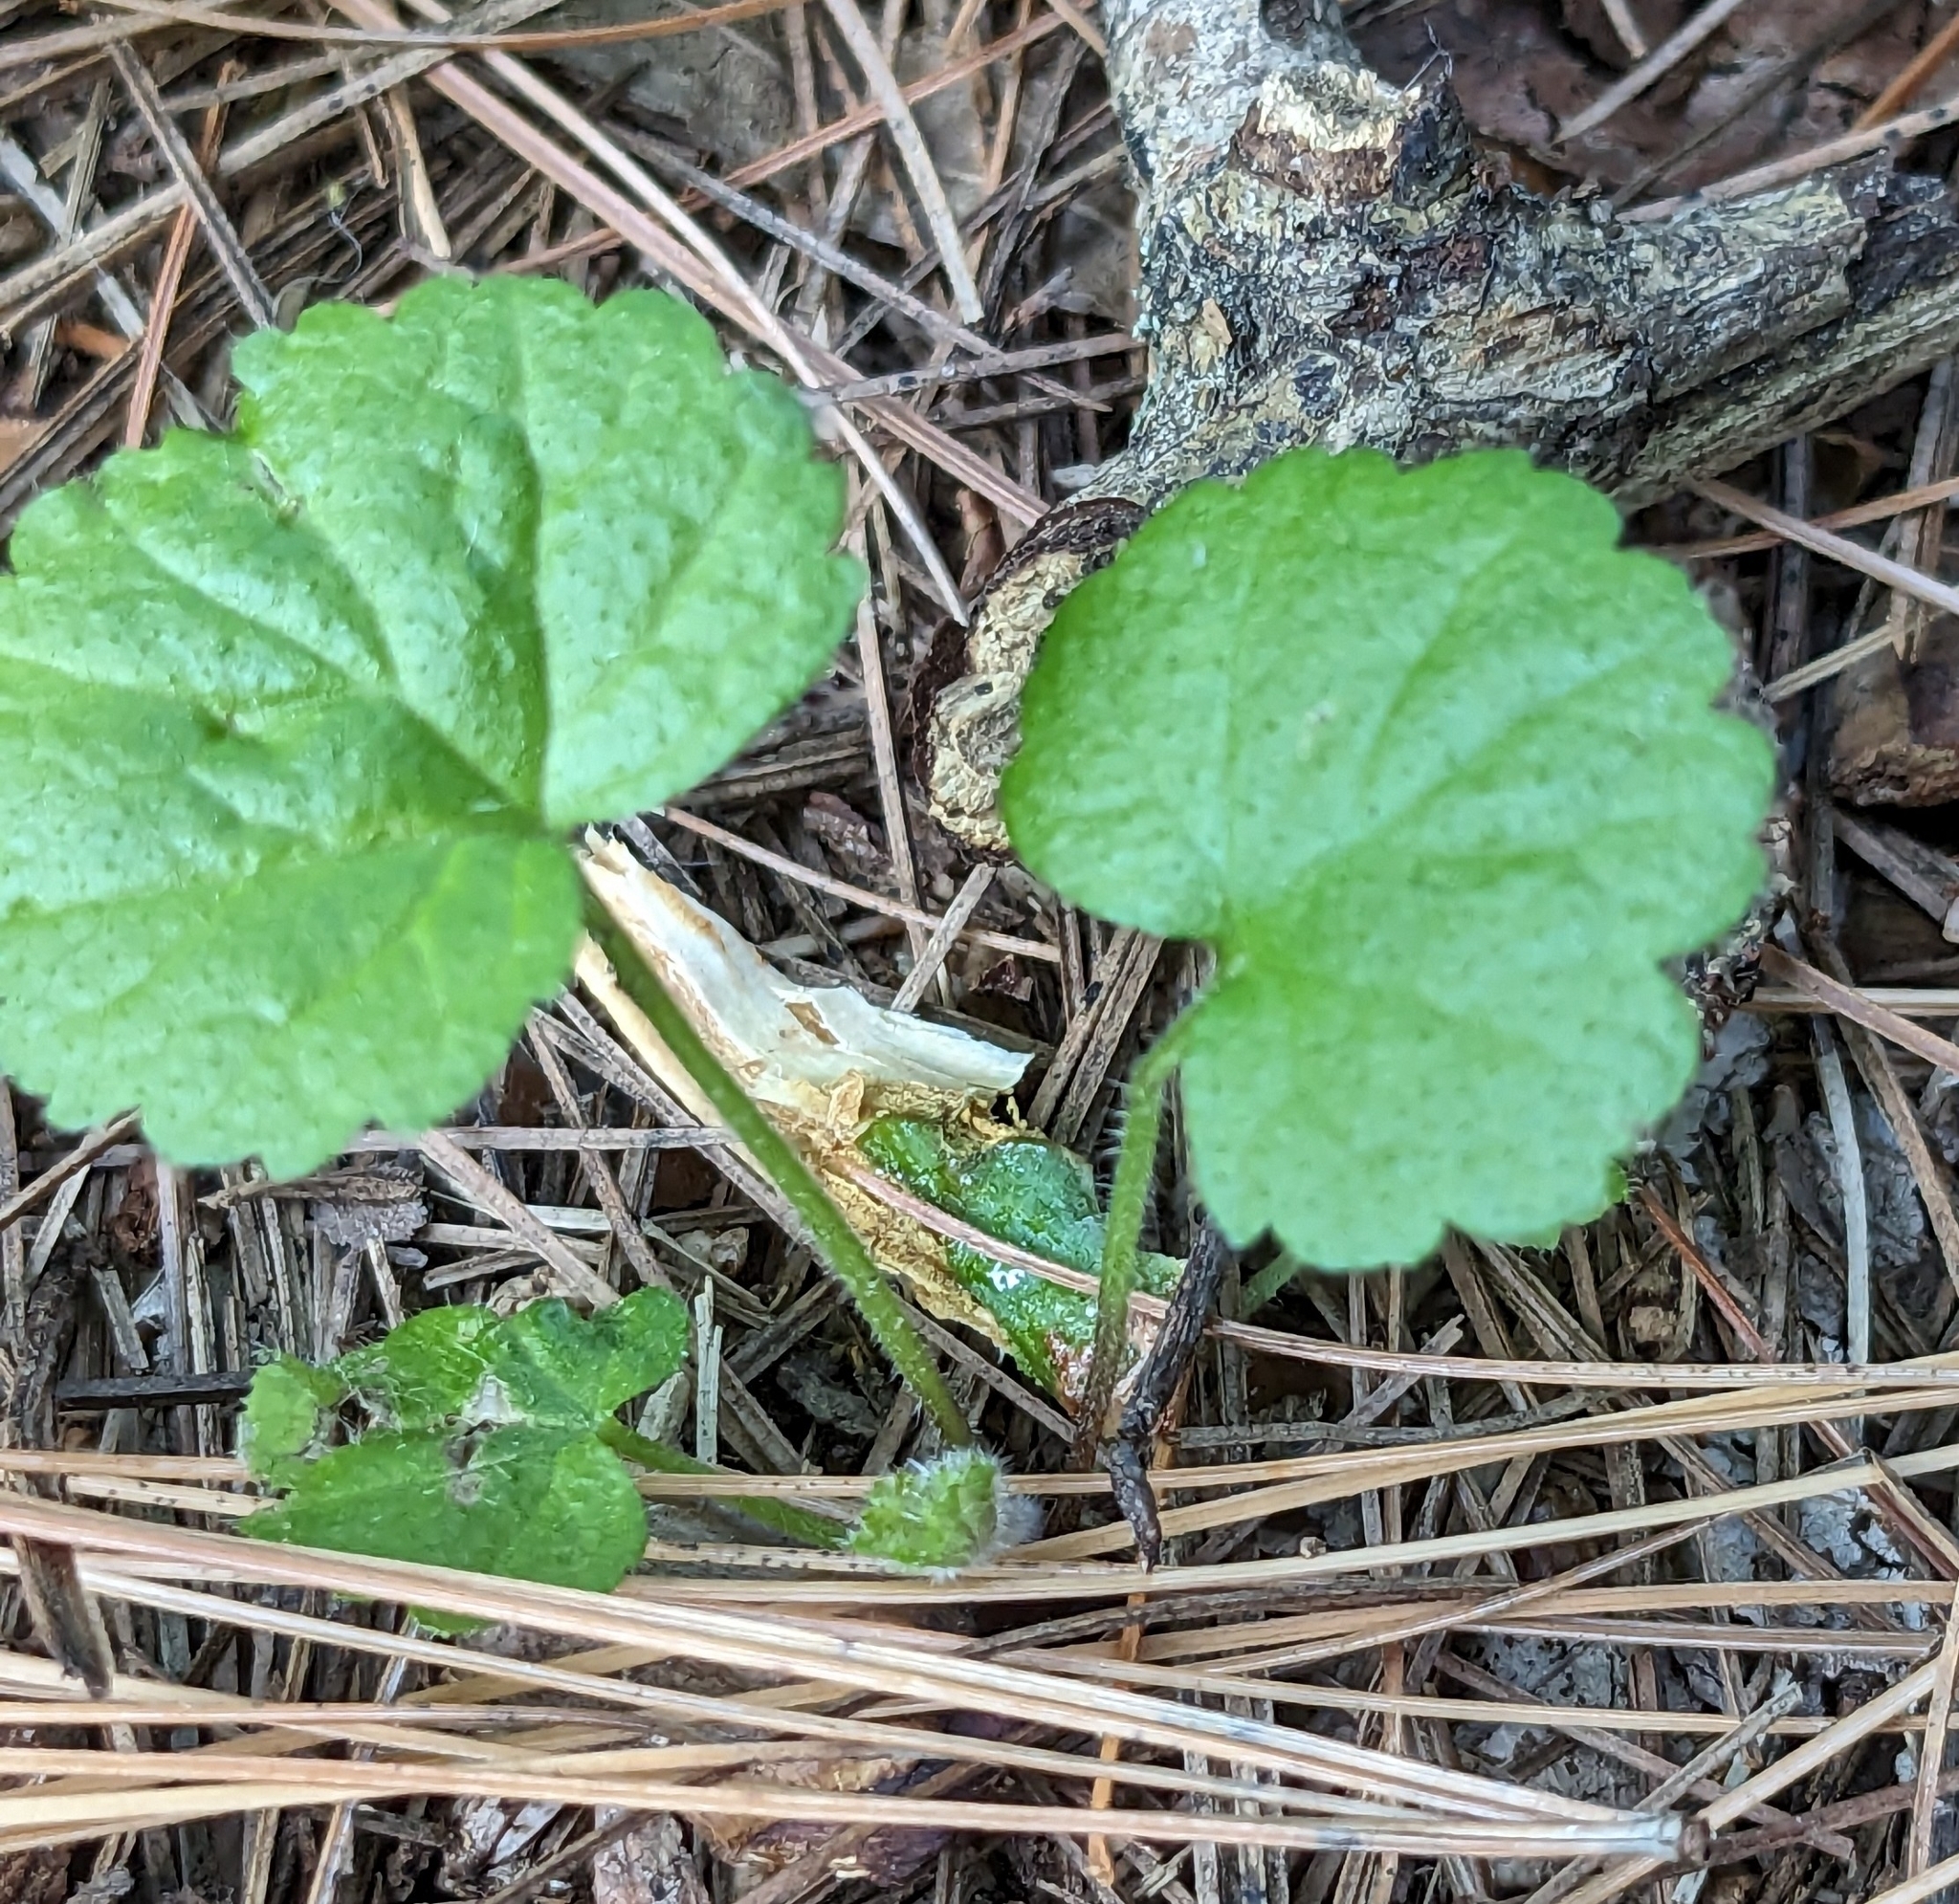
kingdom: Plantae
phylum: Tracheophyta
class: Magnoliopsida
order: Lamiales
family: Lamiaceae
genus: Glechoma
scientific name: Glechoma hederacea
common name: Ground ivy
